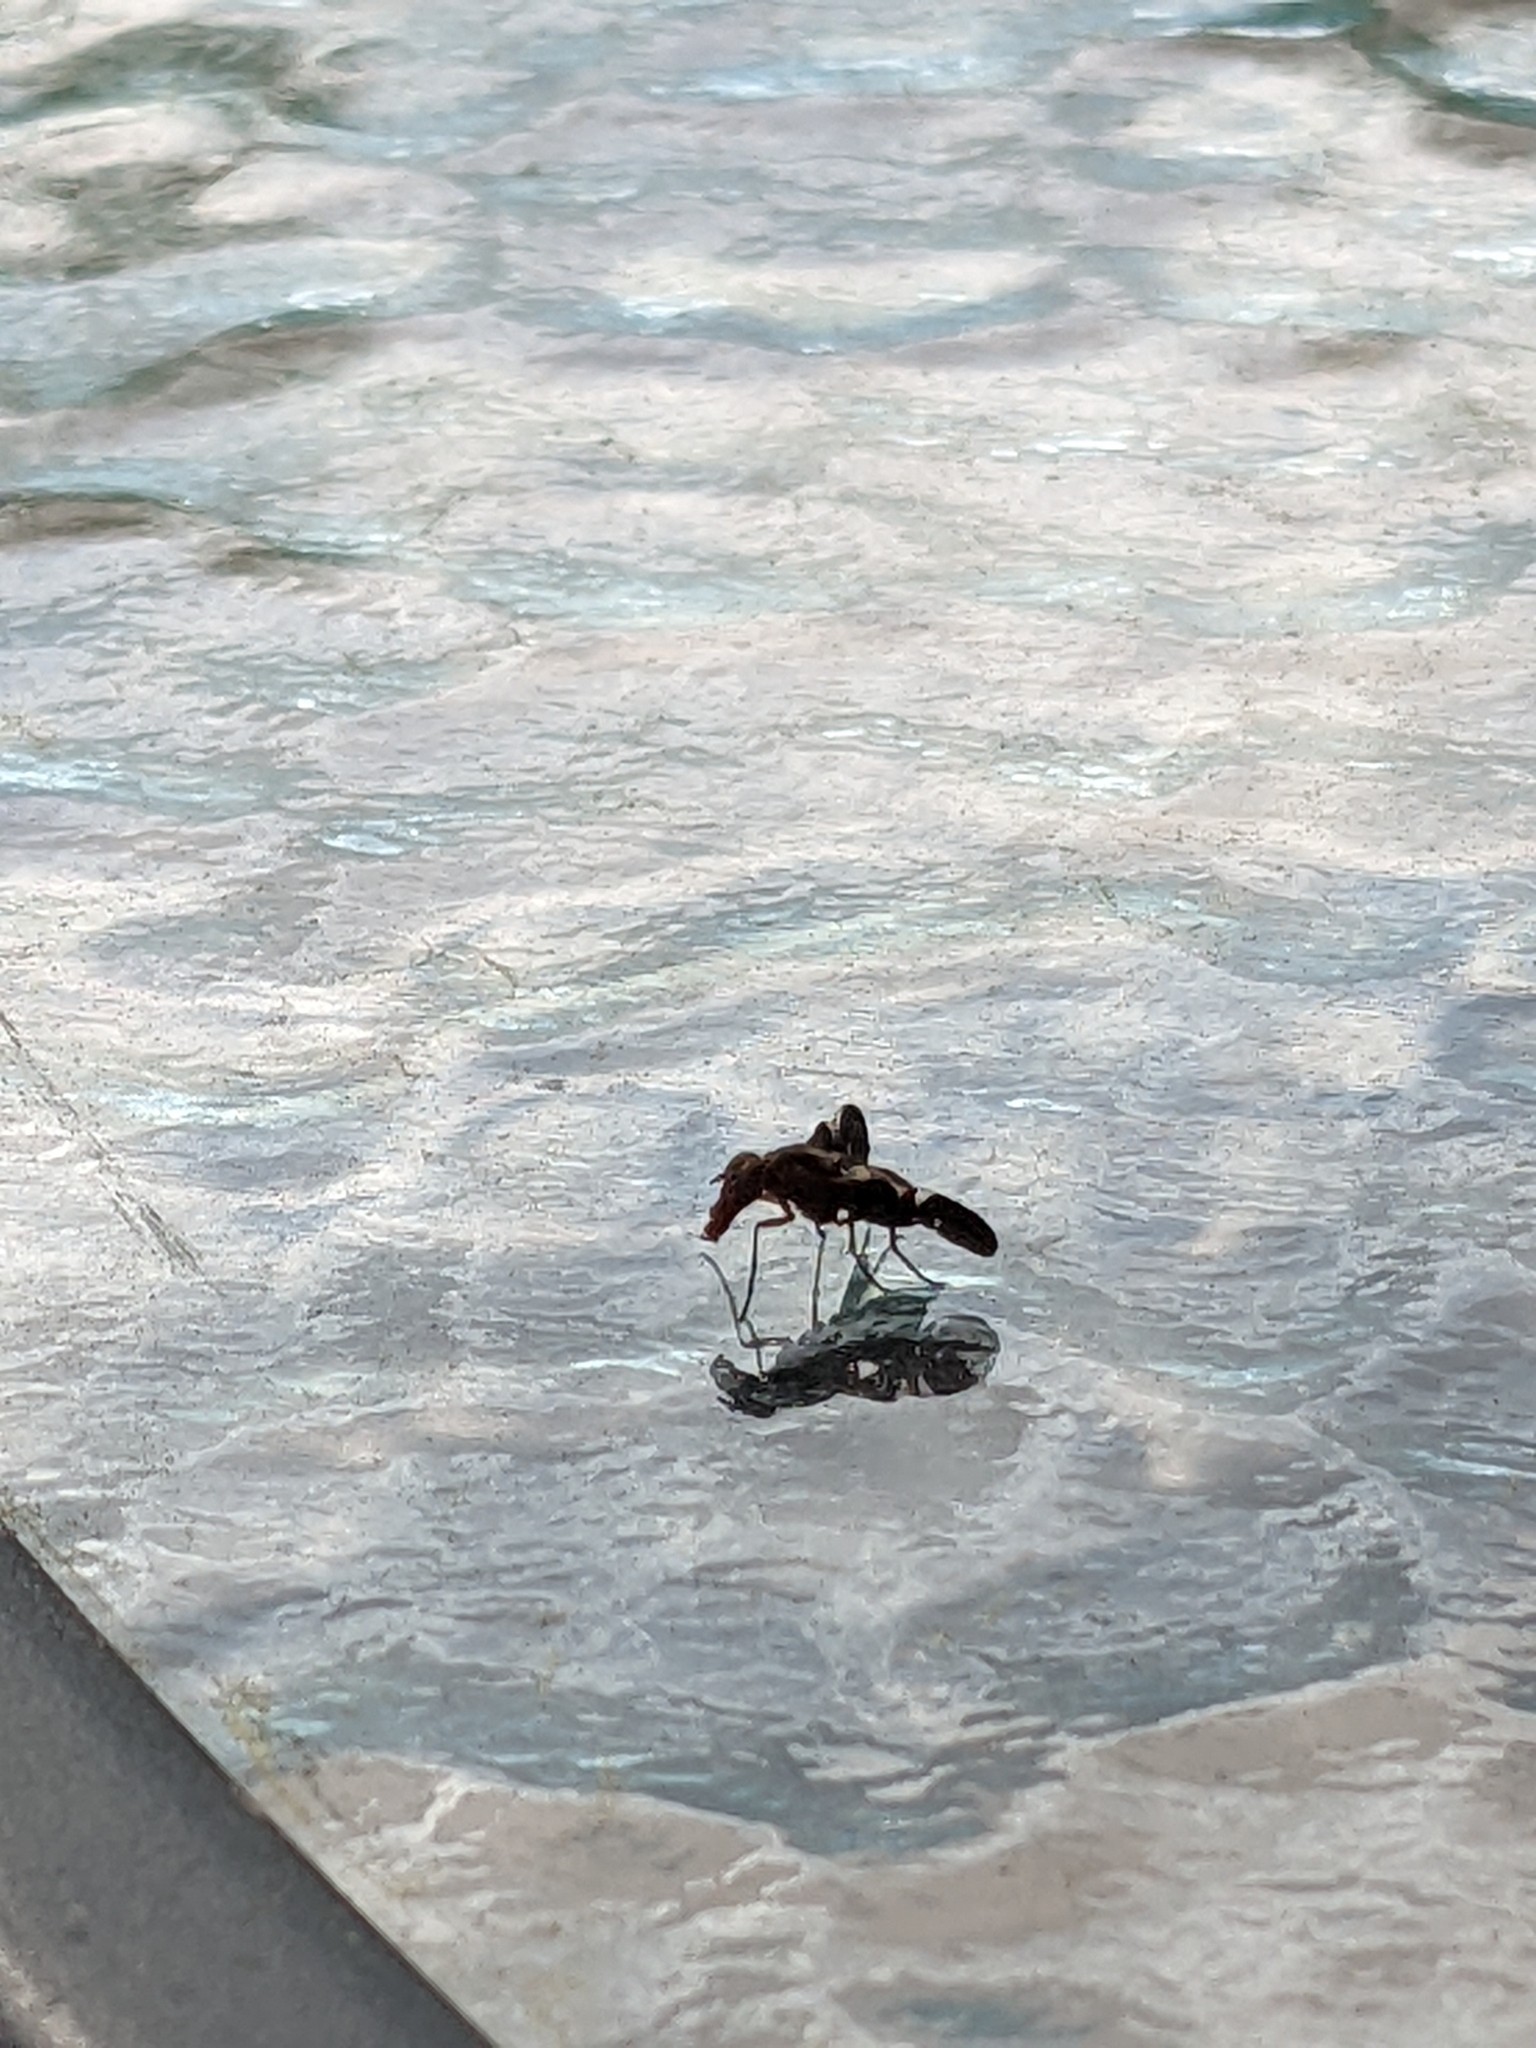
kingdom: Animalia
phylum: Arthropoda
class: Insecta
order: Diptera
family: Ulidiidae
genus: Delphinia
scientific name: Delphinia picta
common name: Common picture-winged fly
